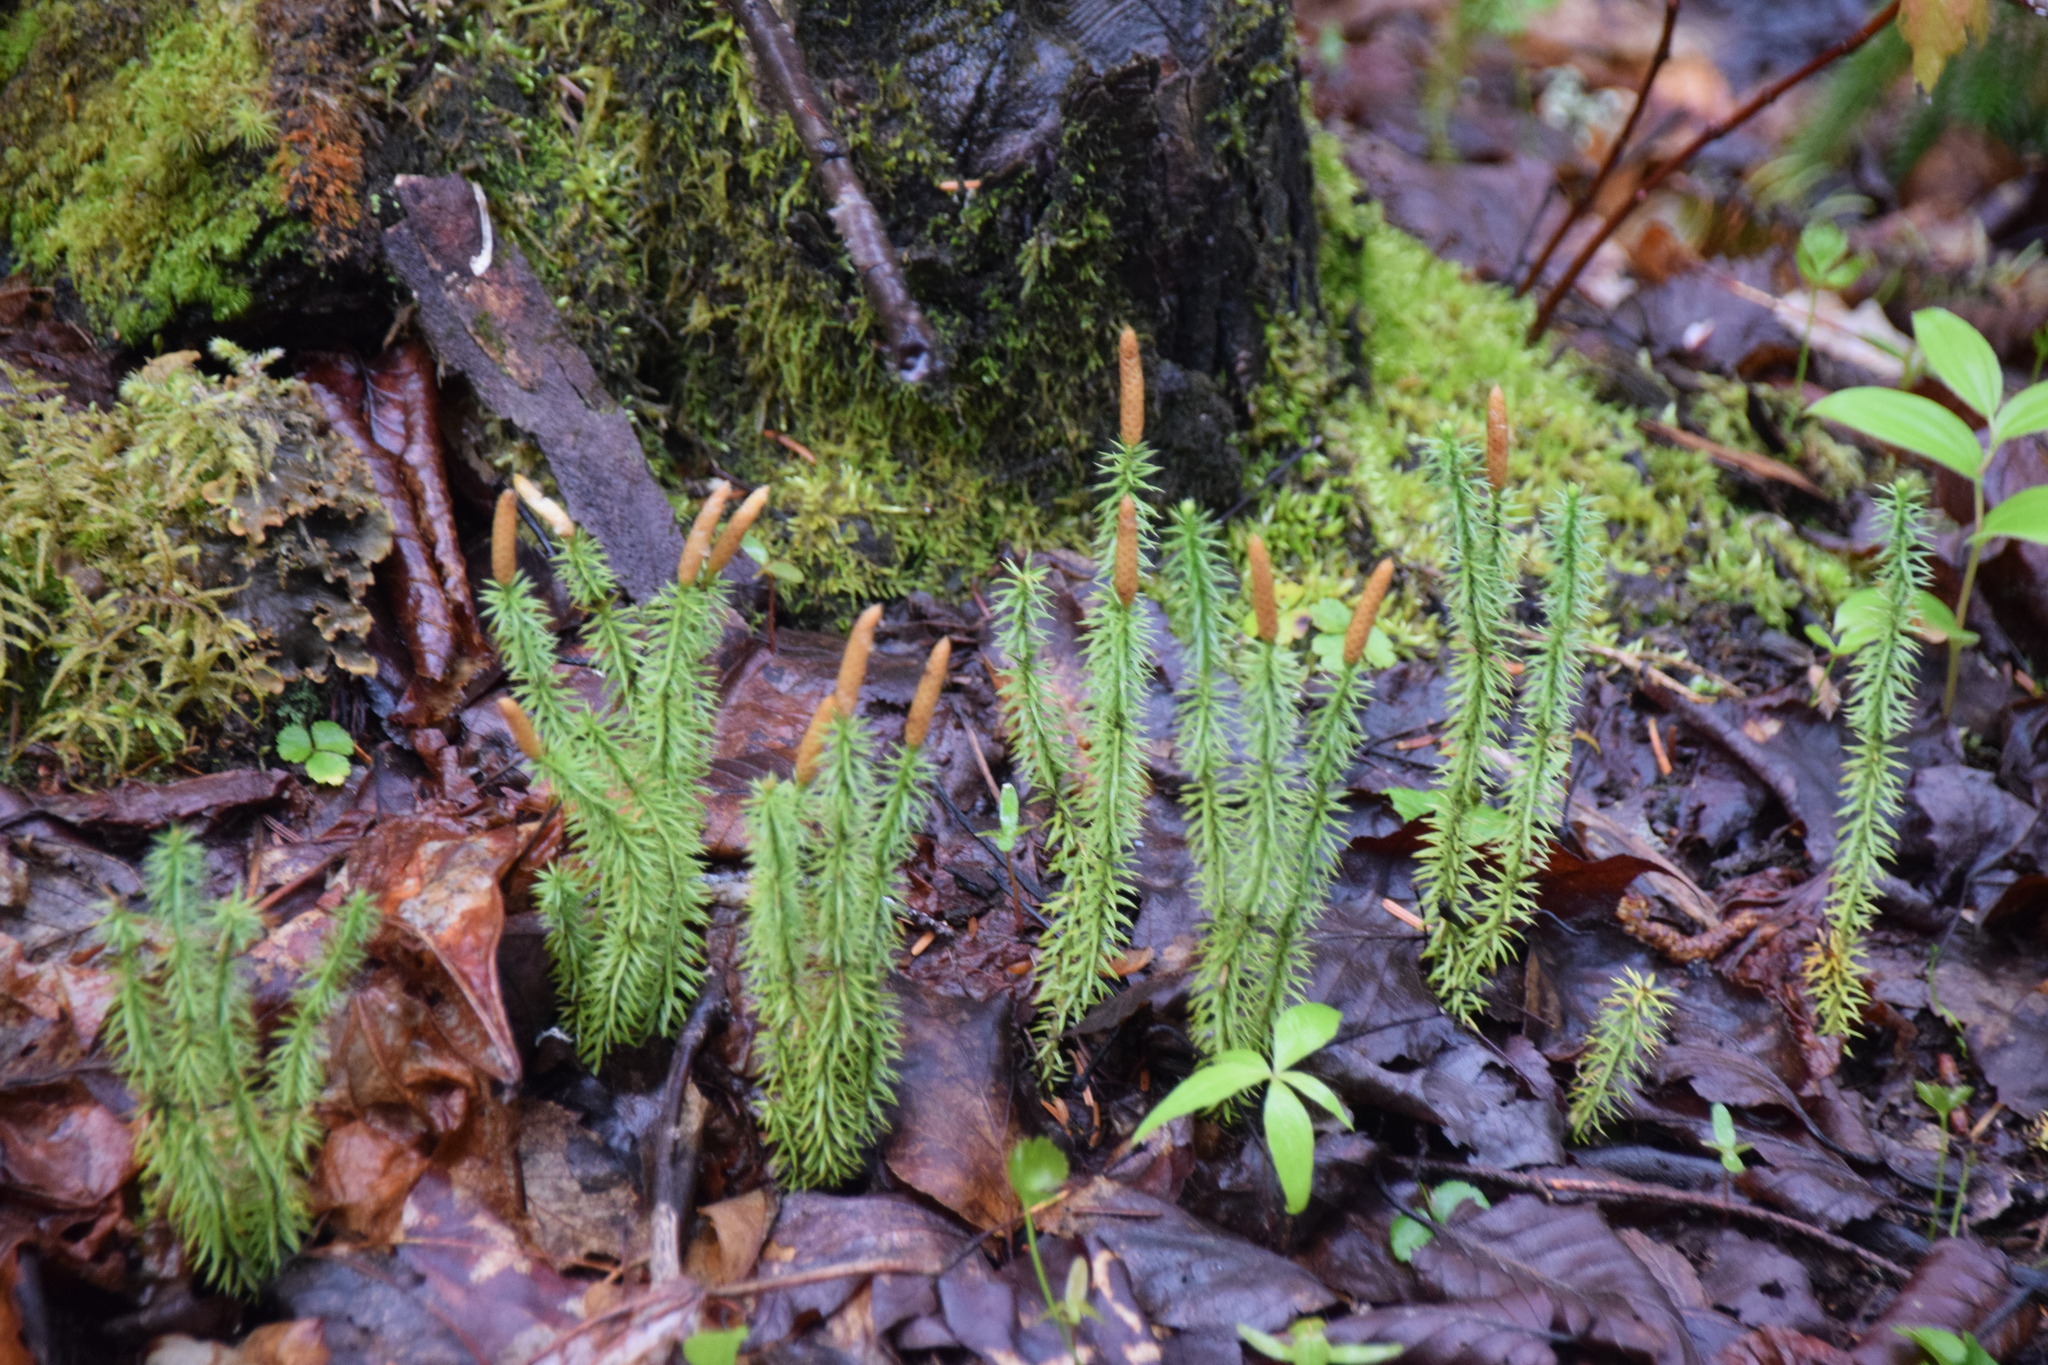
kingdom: Plantae
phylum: Tracheophyta
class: Lycopodiopsida
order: Lycopodiales
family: Lycopodiaceae
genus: Spinulum
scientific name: Spinulum annotinum
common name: Interrupted club-moss
